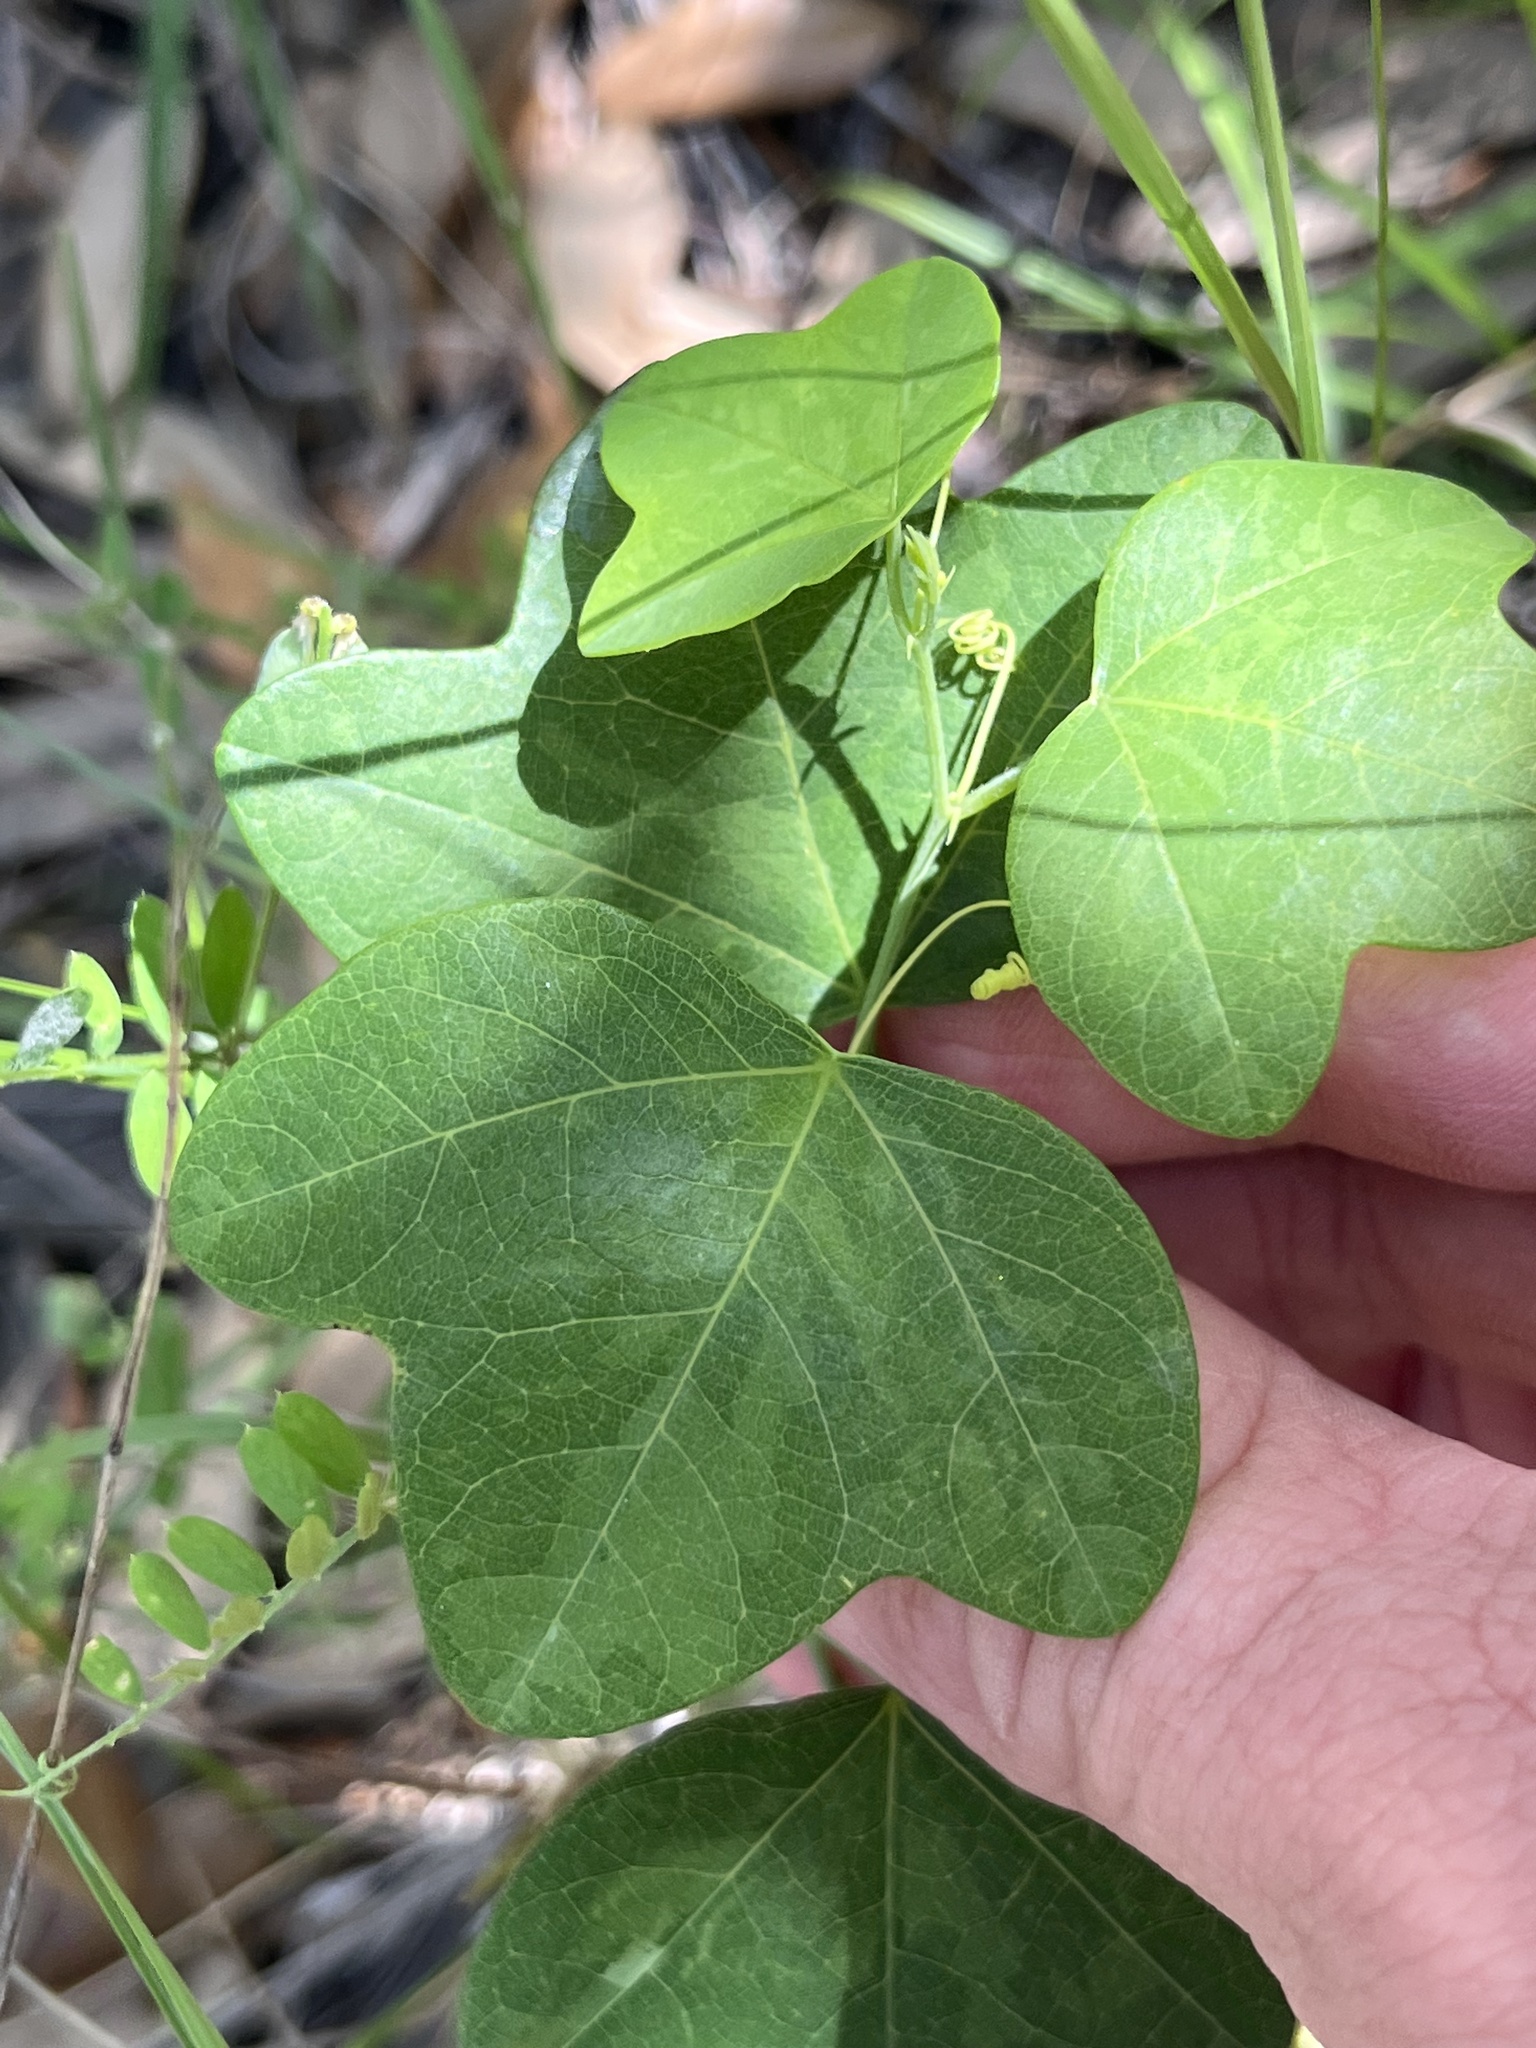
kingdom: Plantae
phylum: Tracheophyta
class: Magnoliopsida
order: Malpighiales
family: Passifloraceae
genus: Passiflora
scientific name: Passiflora lutea
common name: Yellow passionflower
